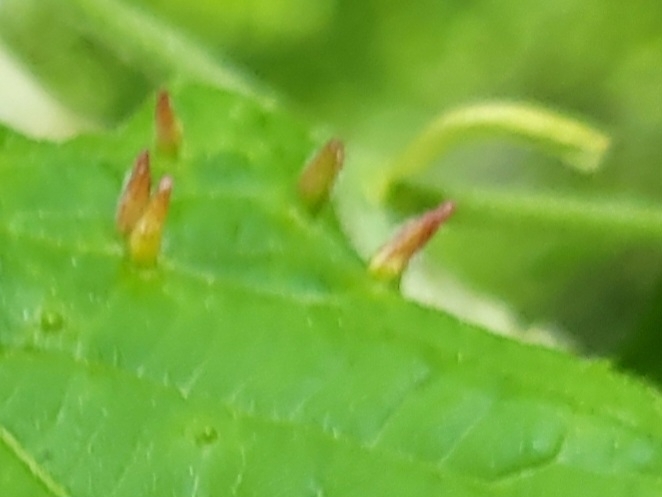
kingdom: Animalia
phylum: Arthropoda
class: Arachnida
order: Trombidiformes
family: Eriophyidae
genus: Eriophyes
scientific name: Eriophyes tiliae
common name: Red nail gall mite
